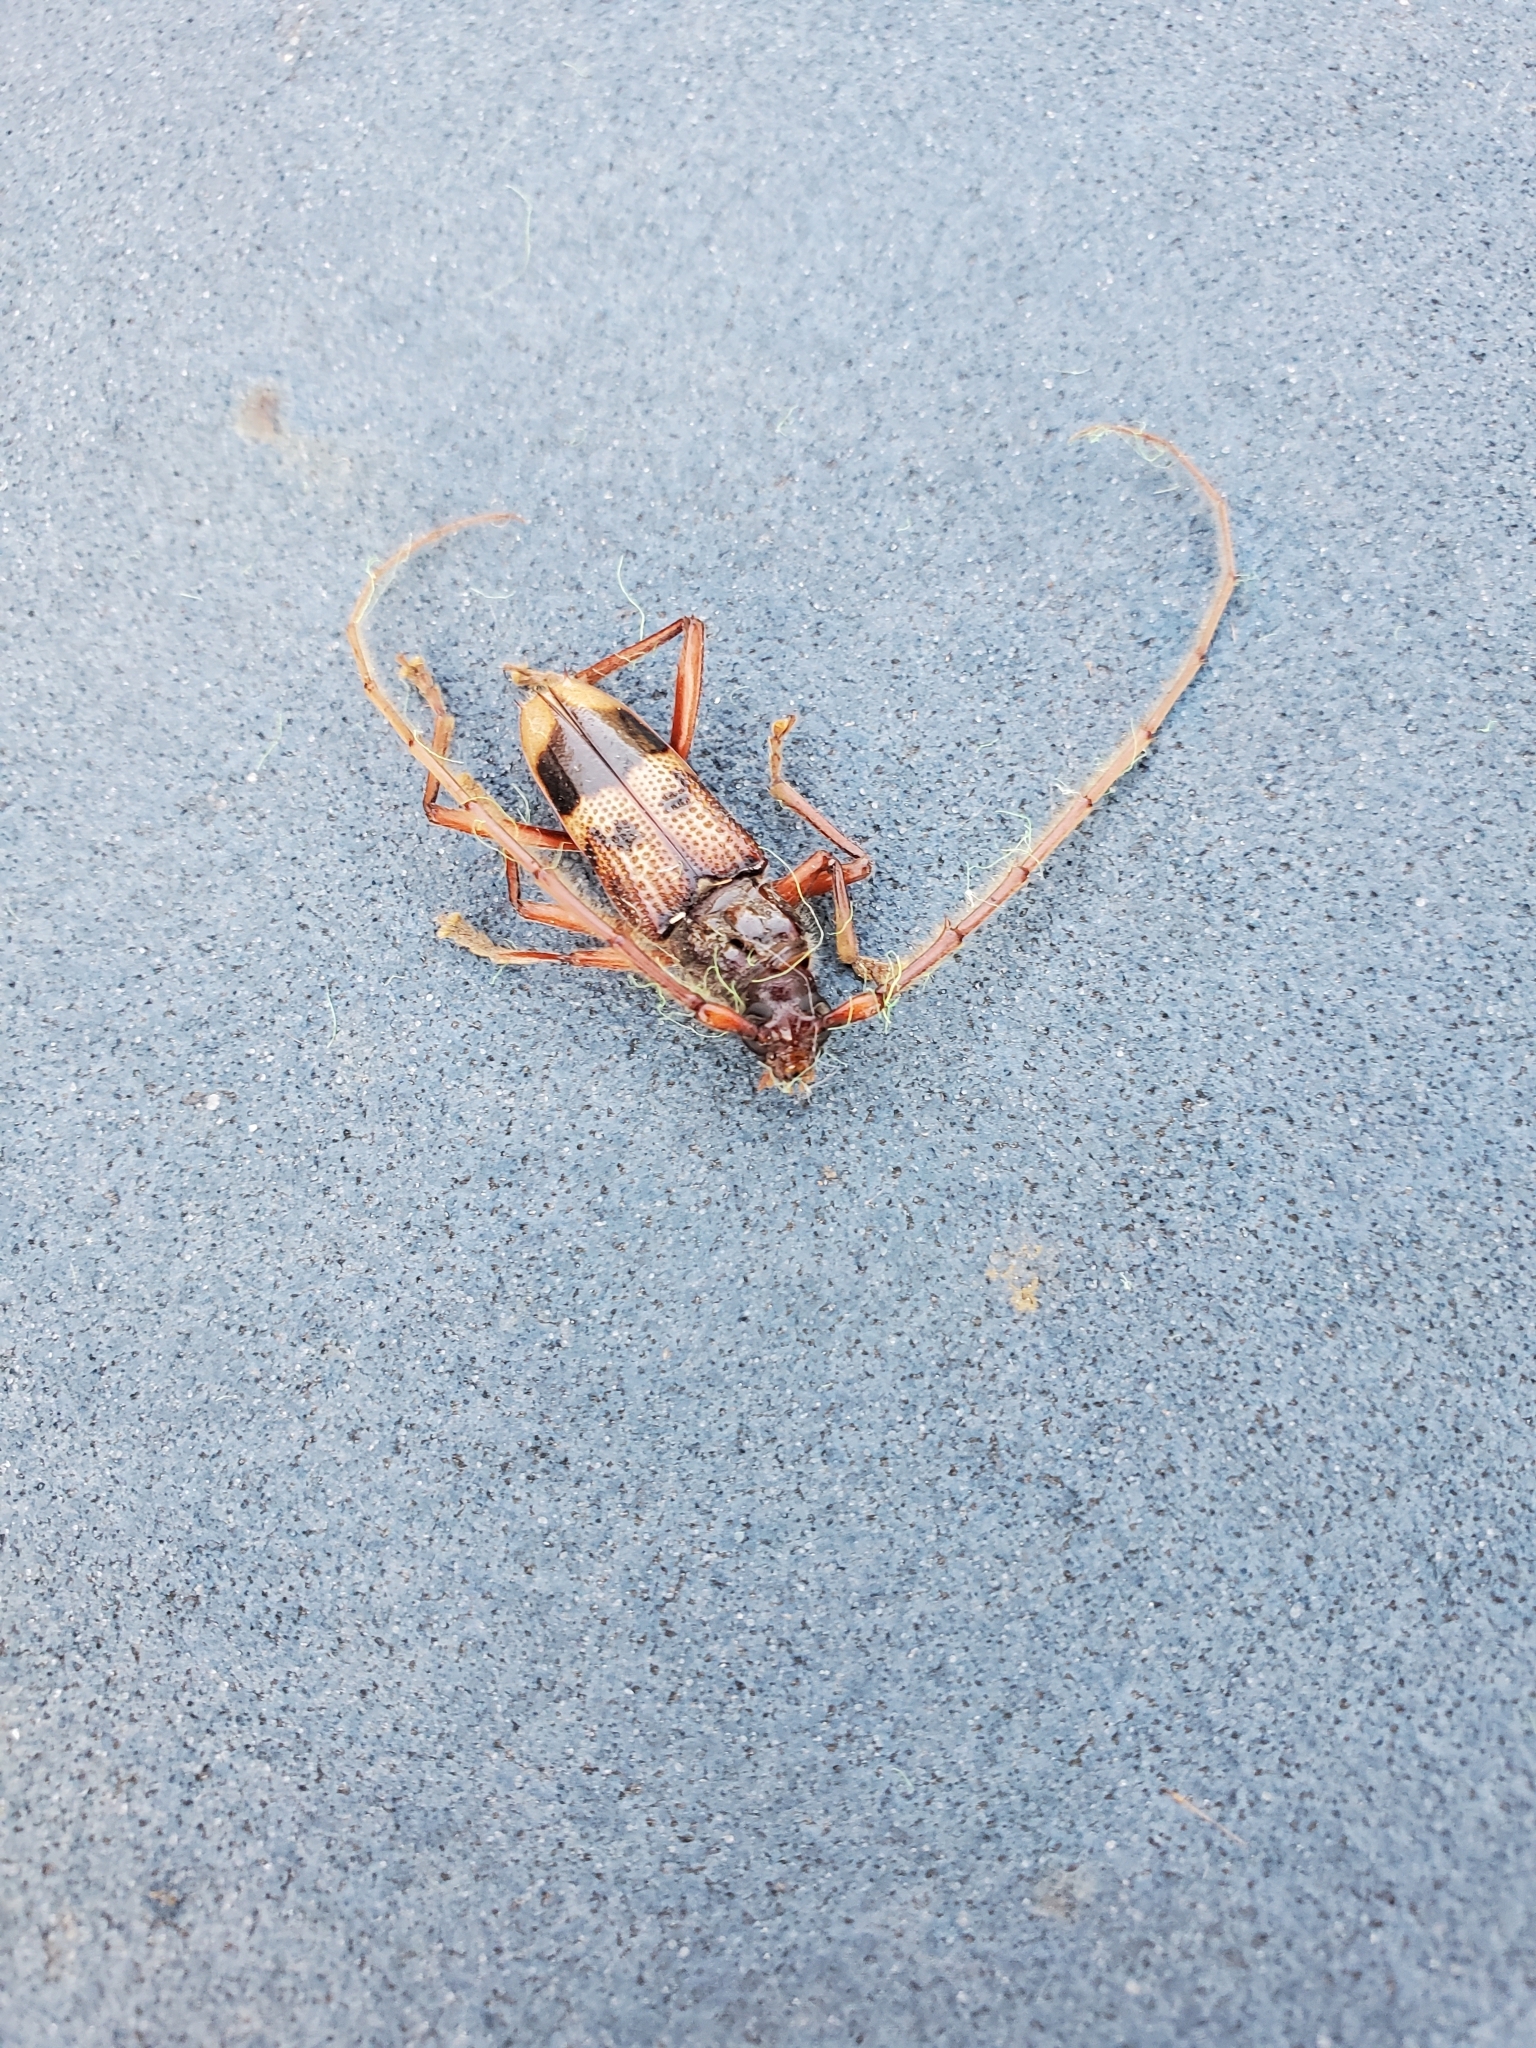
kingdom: Animalia
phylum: Arthropoda
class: Insecta
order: Coleoptera
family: Cerambycidae
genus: Phoracantha
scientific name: Phoracantha recurva
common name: Eucalyptus longhorned borer
